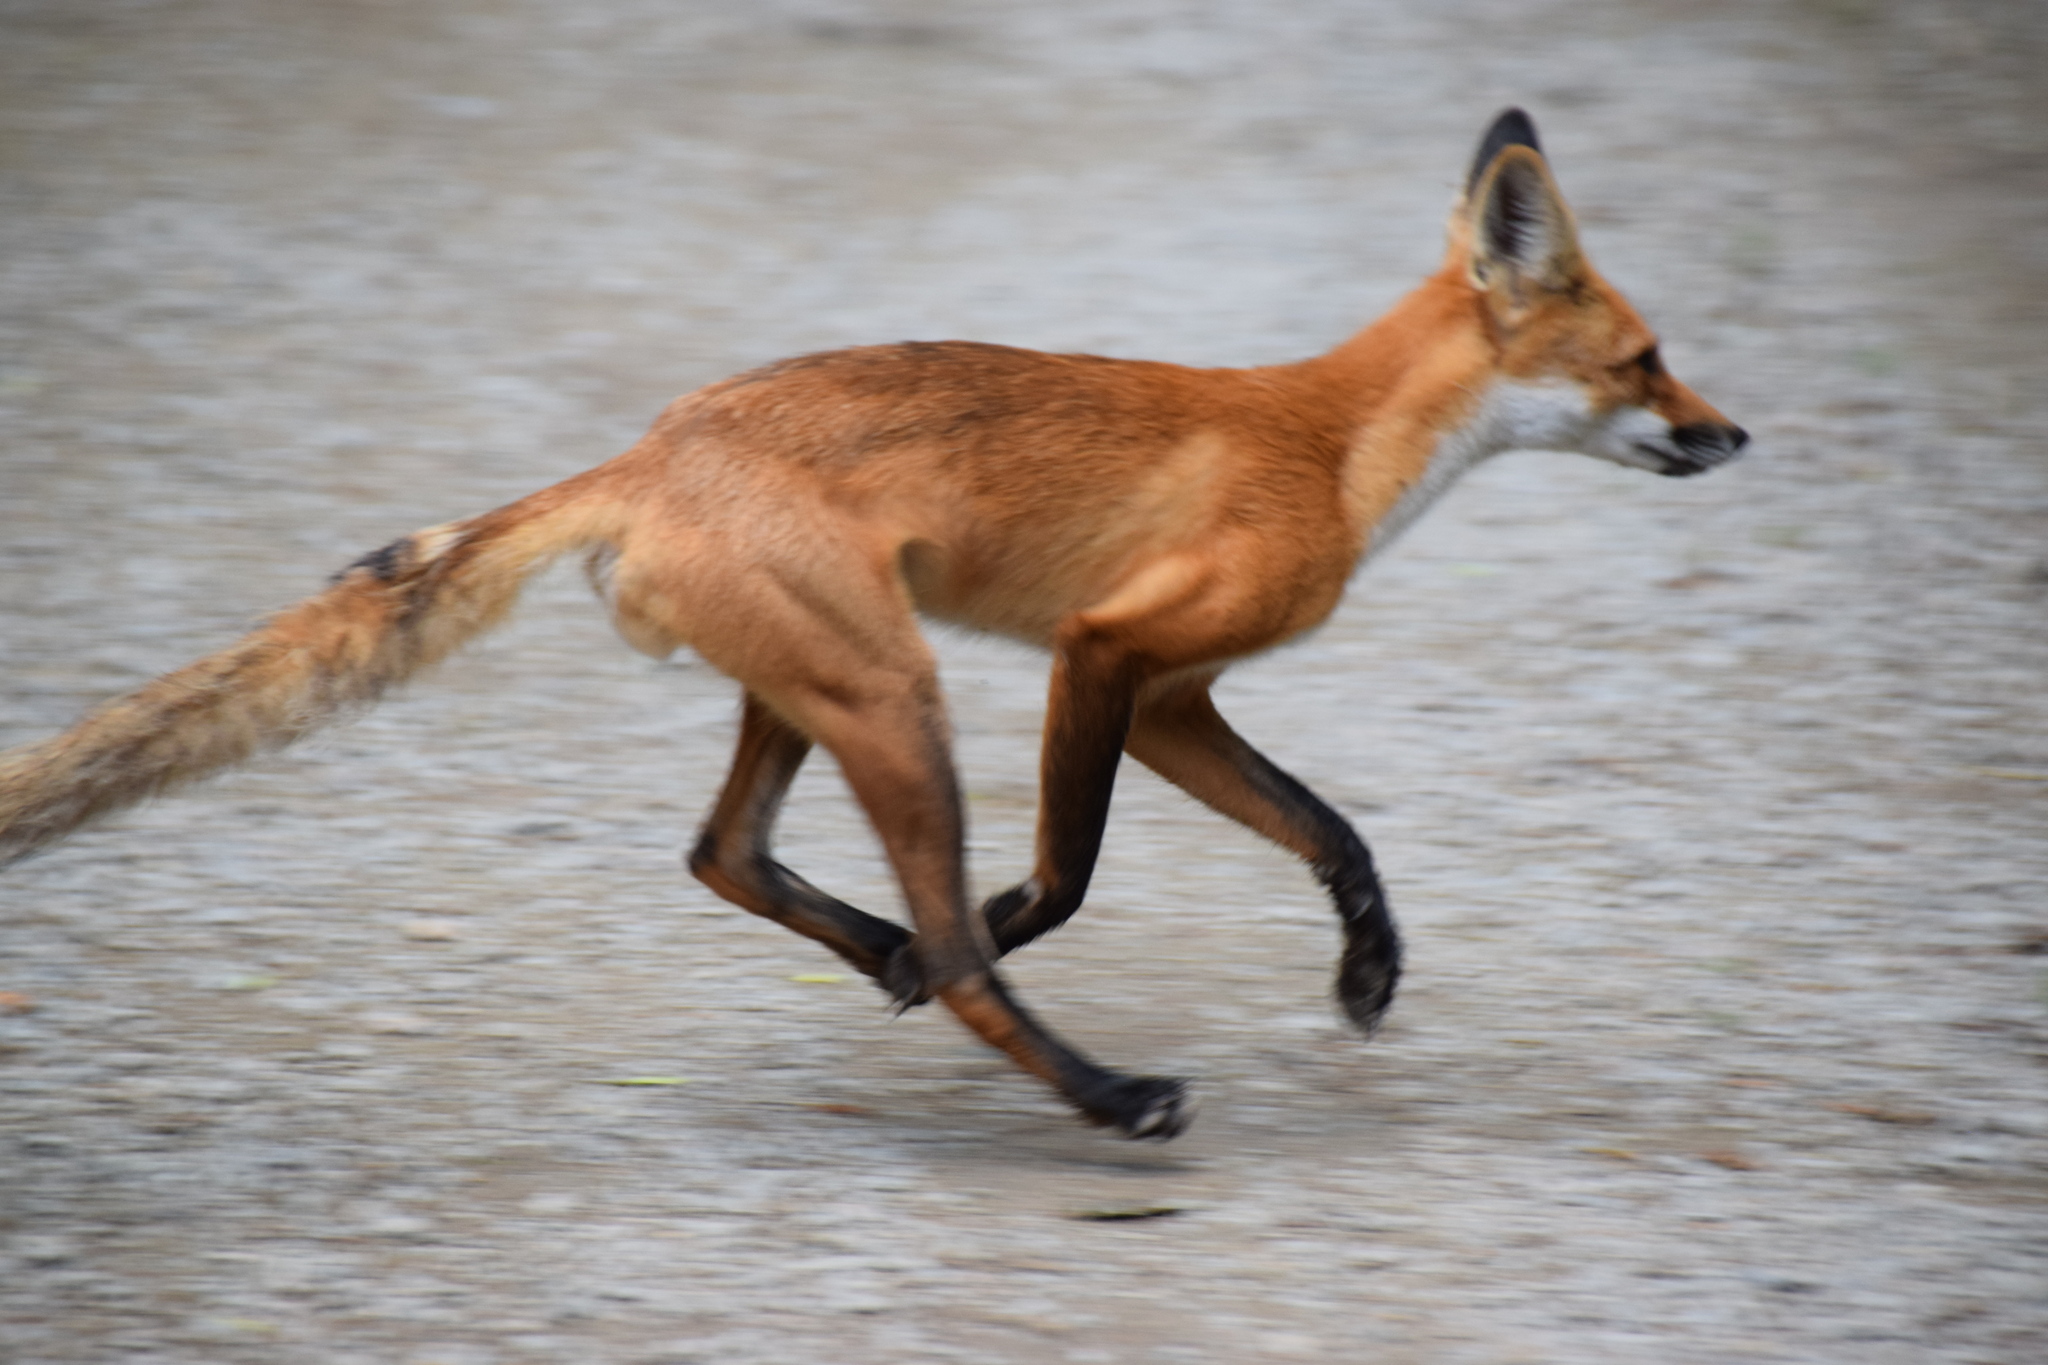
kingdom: Animalia
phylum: Chordata
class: Mammalia
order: Carnivora
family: Canidae
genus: Vulpes
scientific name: Vulpes vulpes
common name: Red fox
